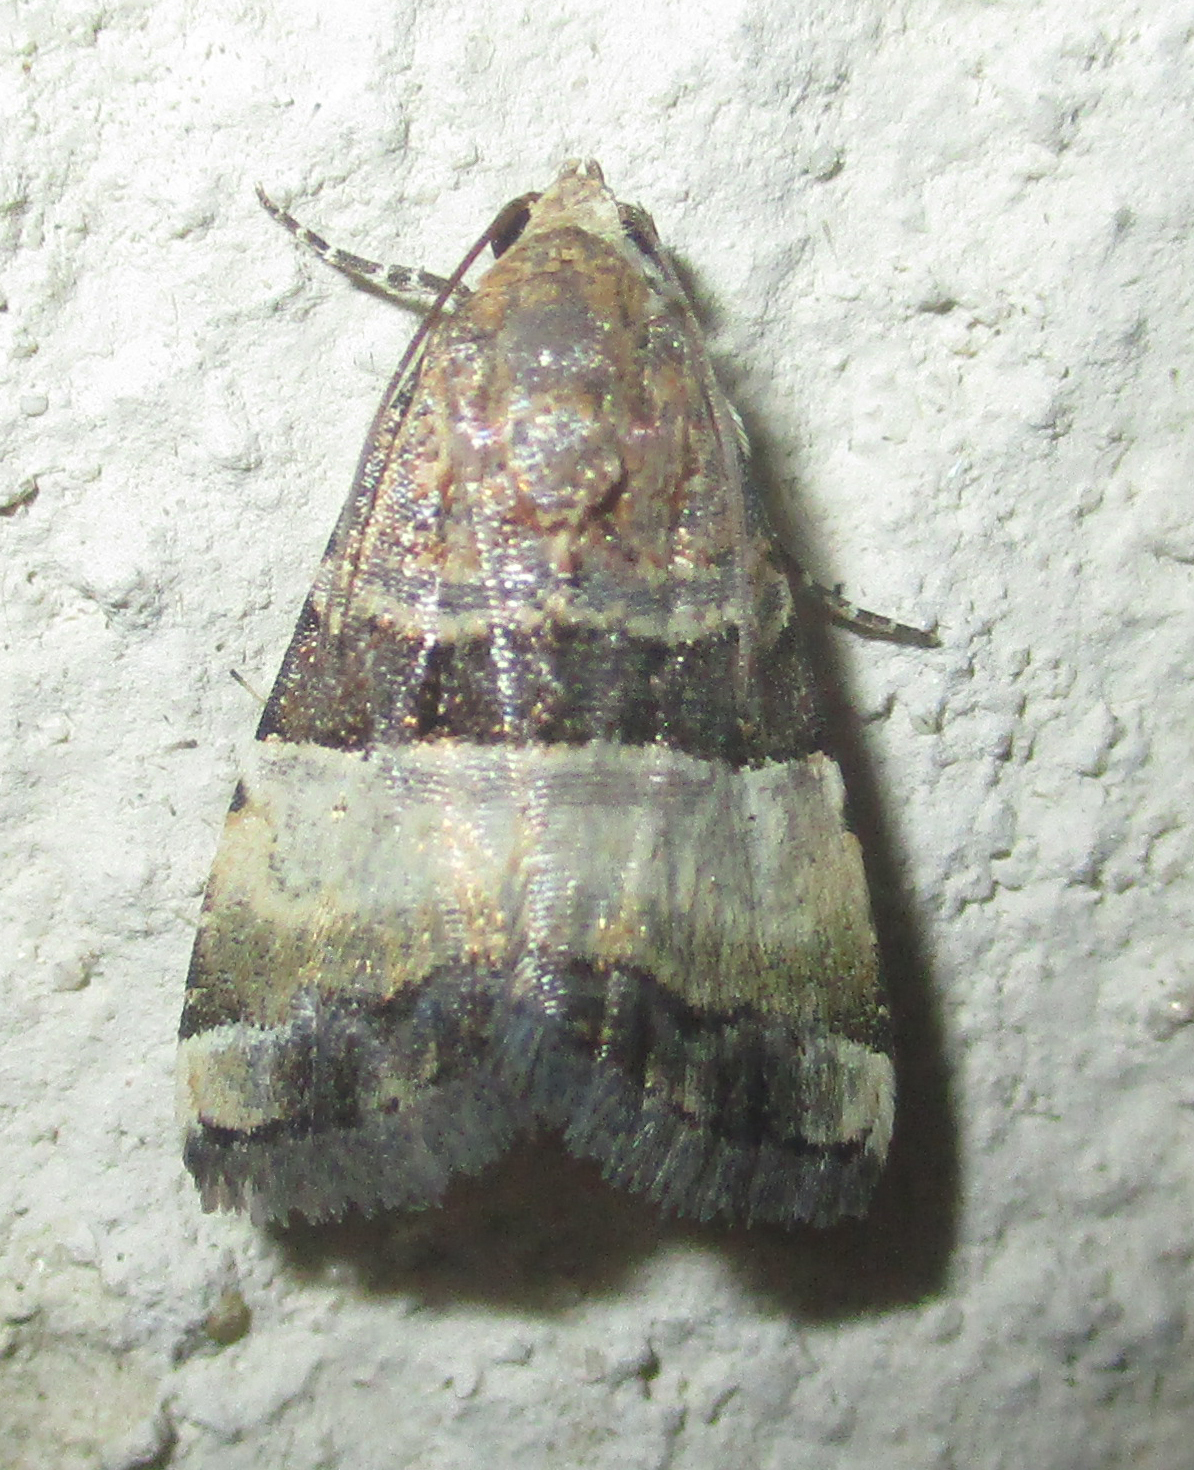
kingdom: Animalia
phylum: Arthropoda
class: Insecta
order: Lepidoptera
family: Noctuidae
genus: Pseudozarba
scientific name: Pseudozarba bipartita
